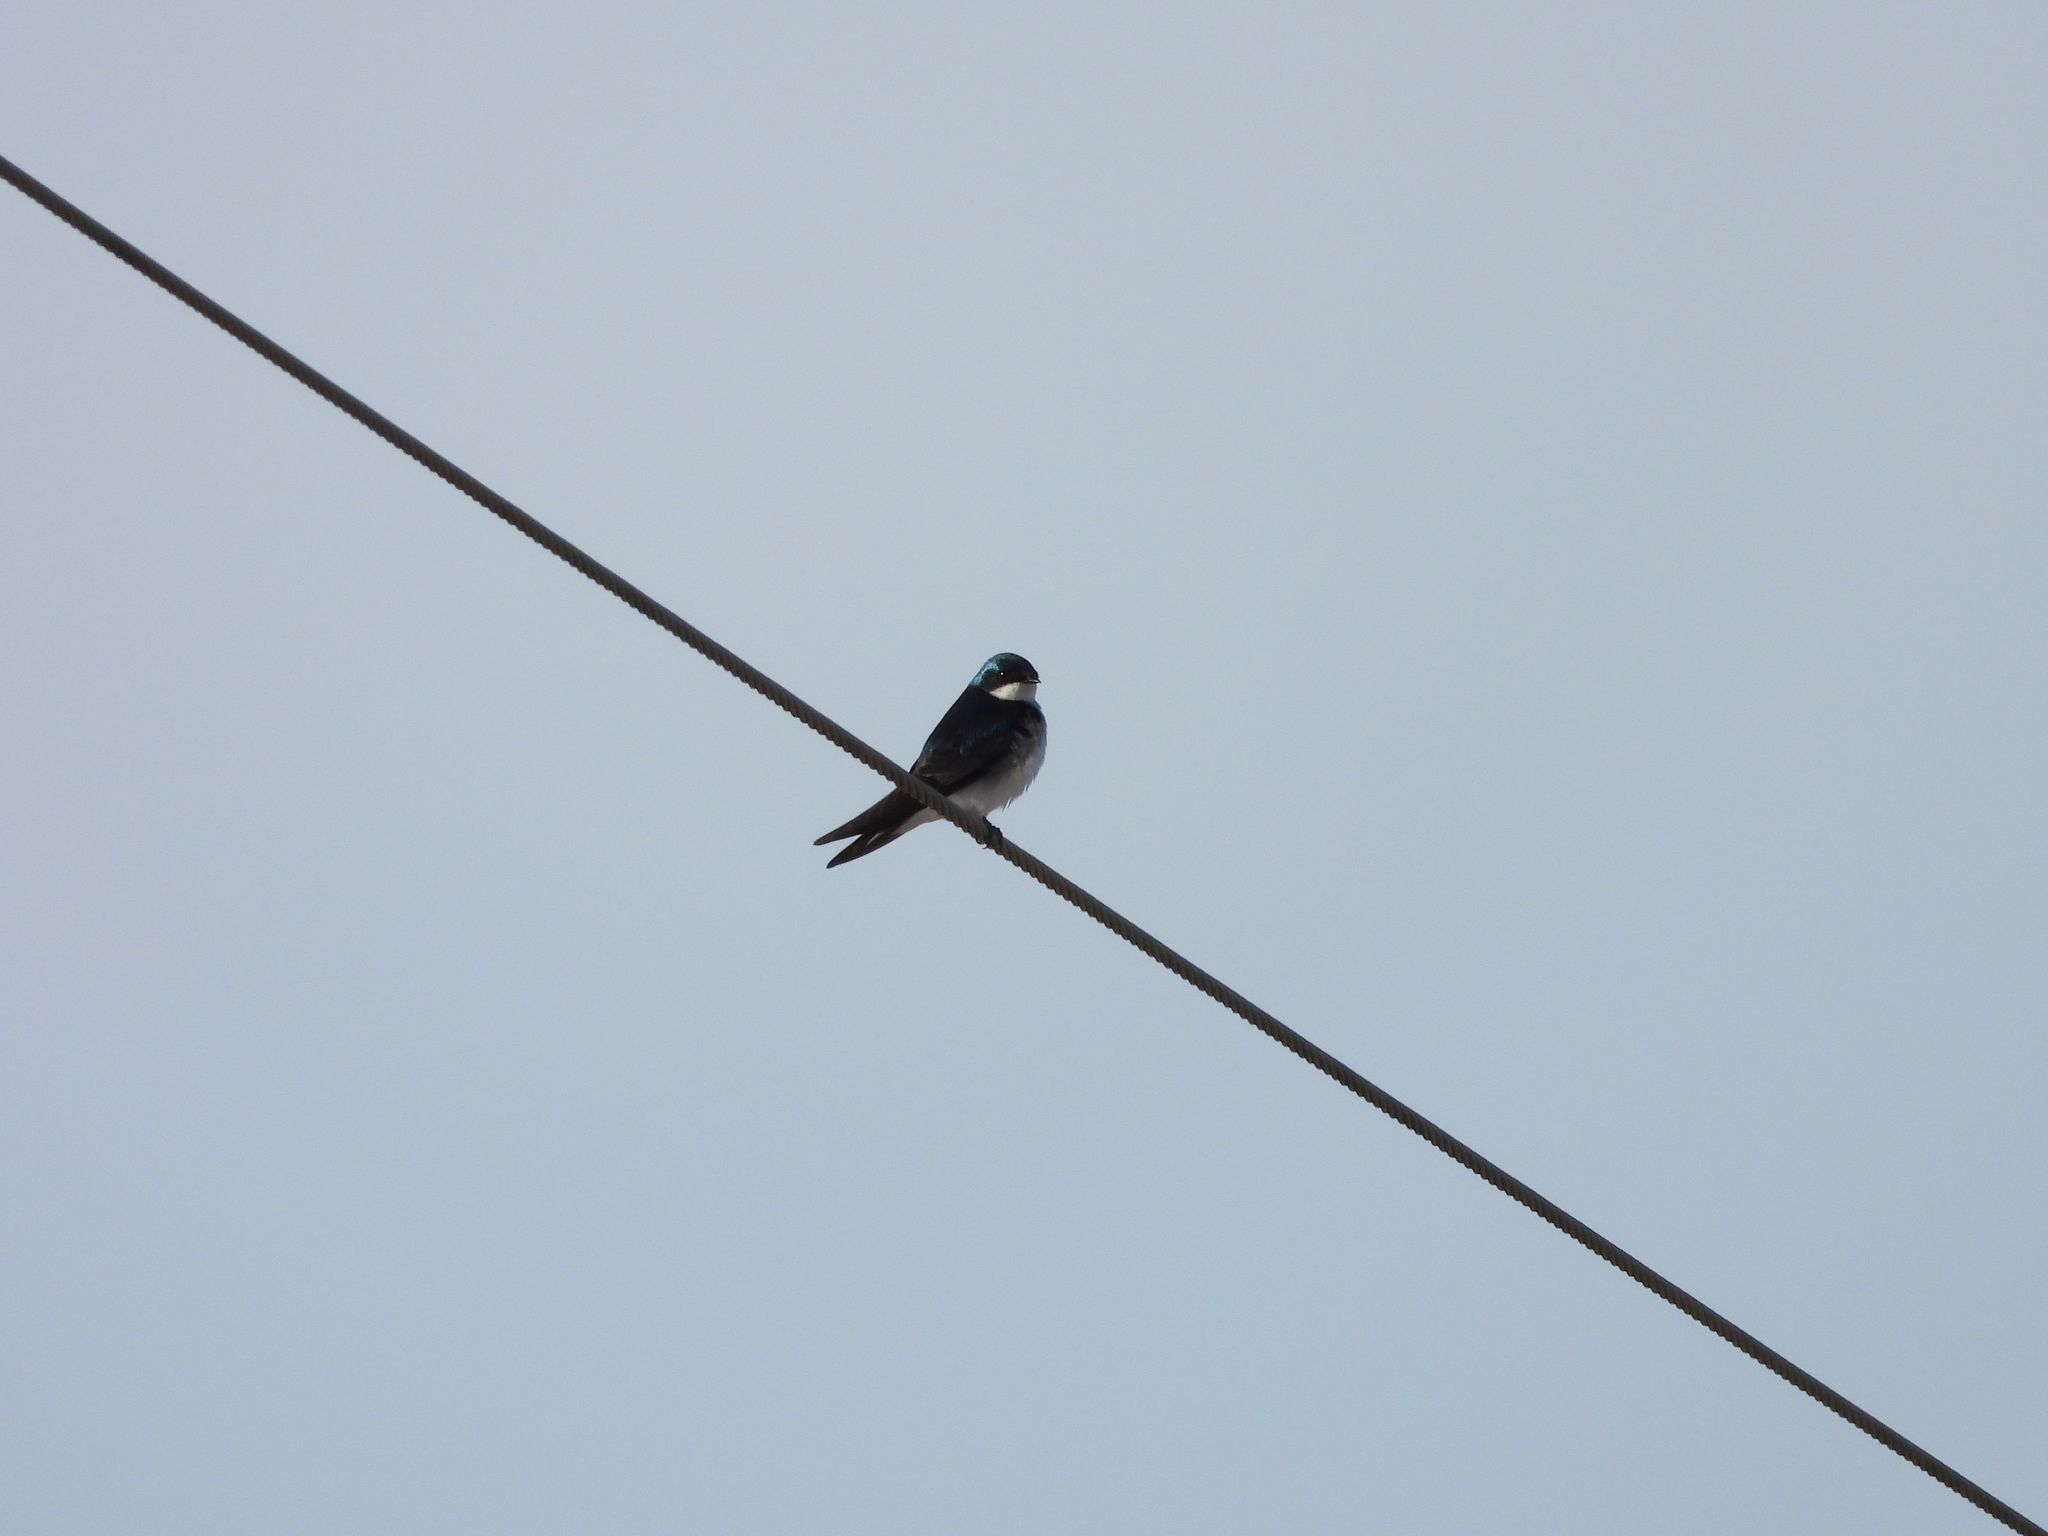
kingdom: Animalia
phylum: Chordata
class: Aves
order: Passeriformes
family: Hirundinidae
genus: Tachycineta
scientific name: Tachycineta bicolor
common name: Tree swallow
